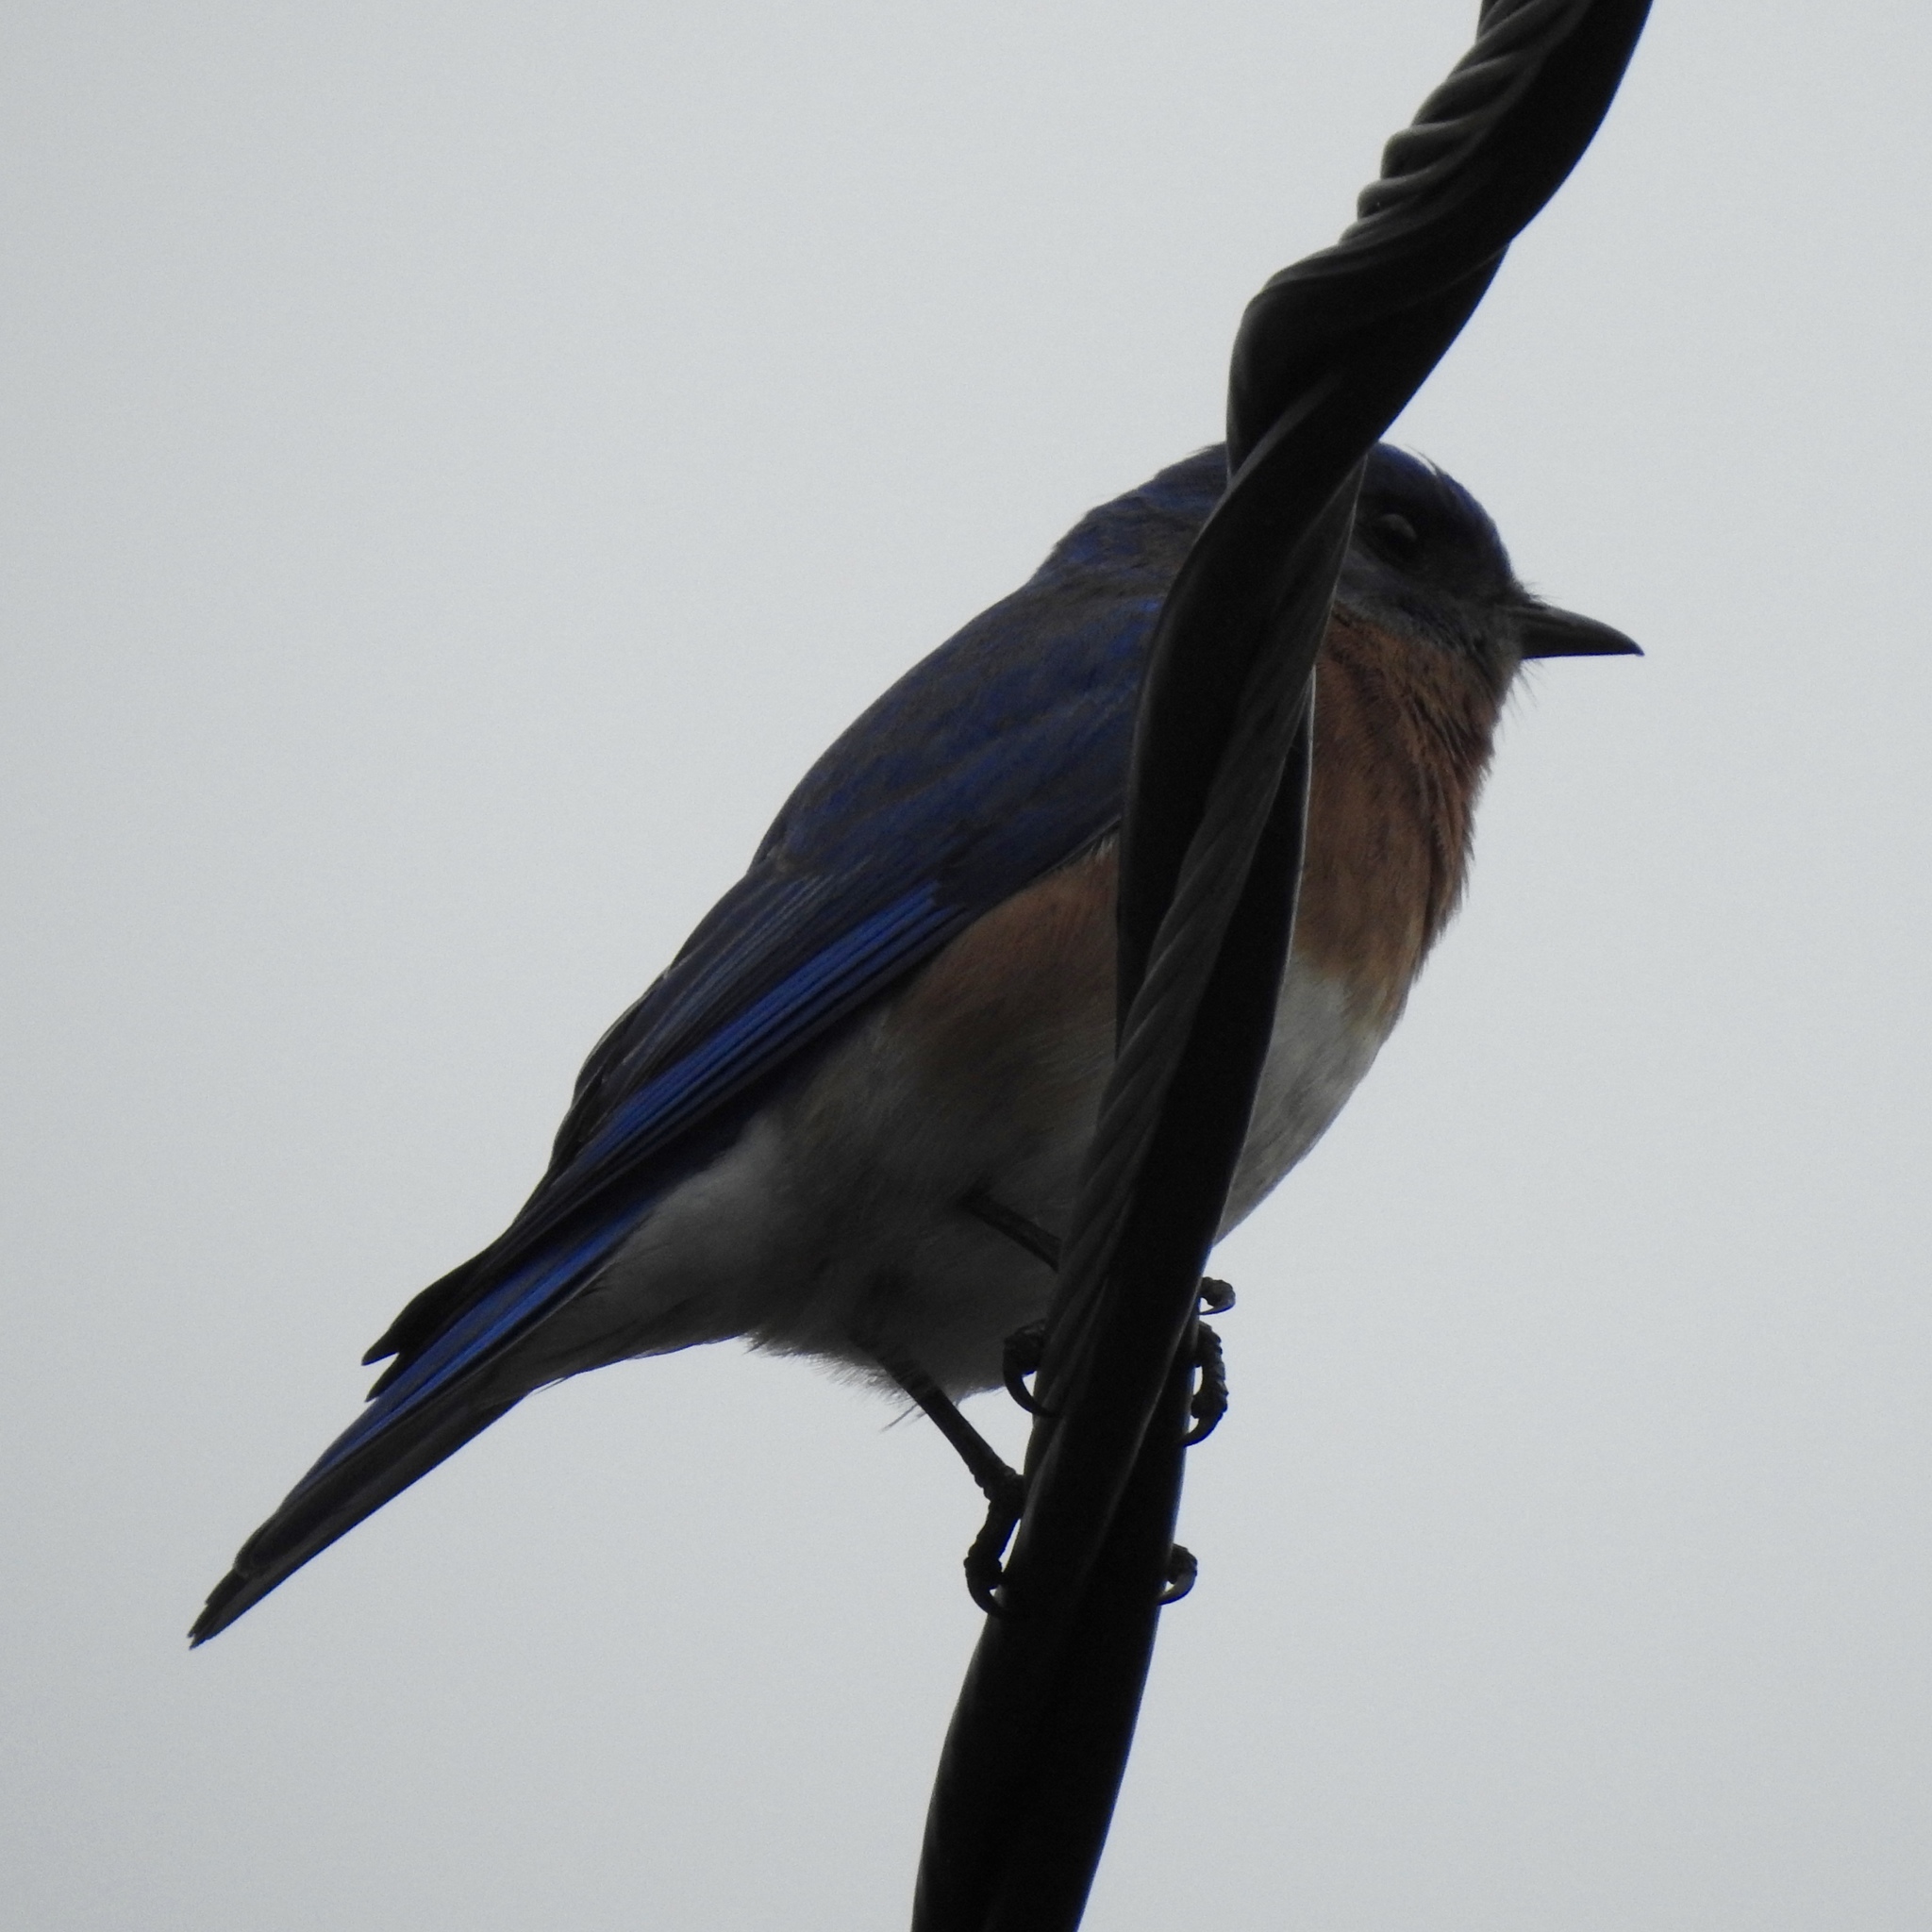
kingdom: Animalia
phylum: Chordata
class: Aves
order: Passeriformes
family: Turdidae
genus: Sialia
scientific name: Sialia sialis
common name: Eastern bluebird
